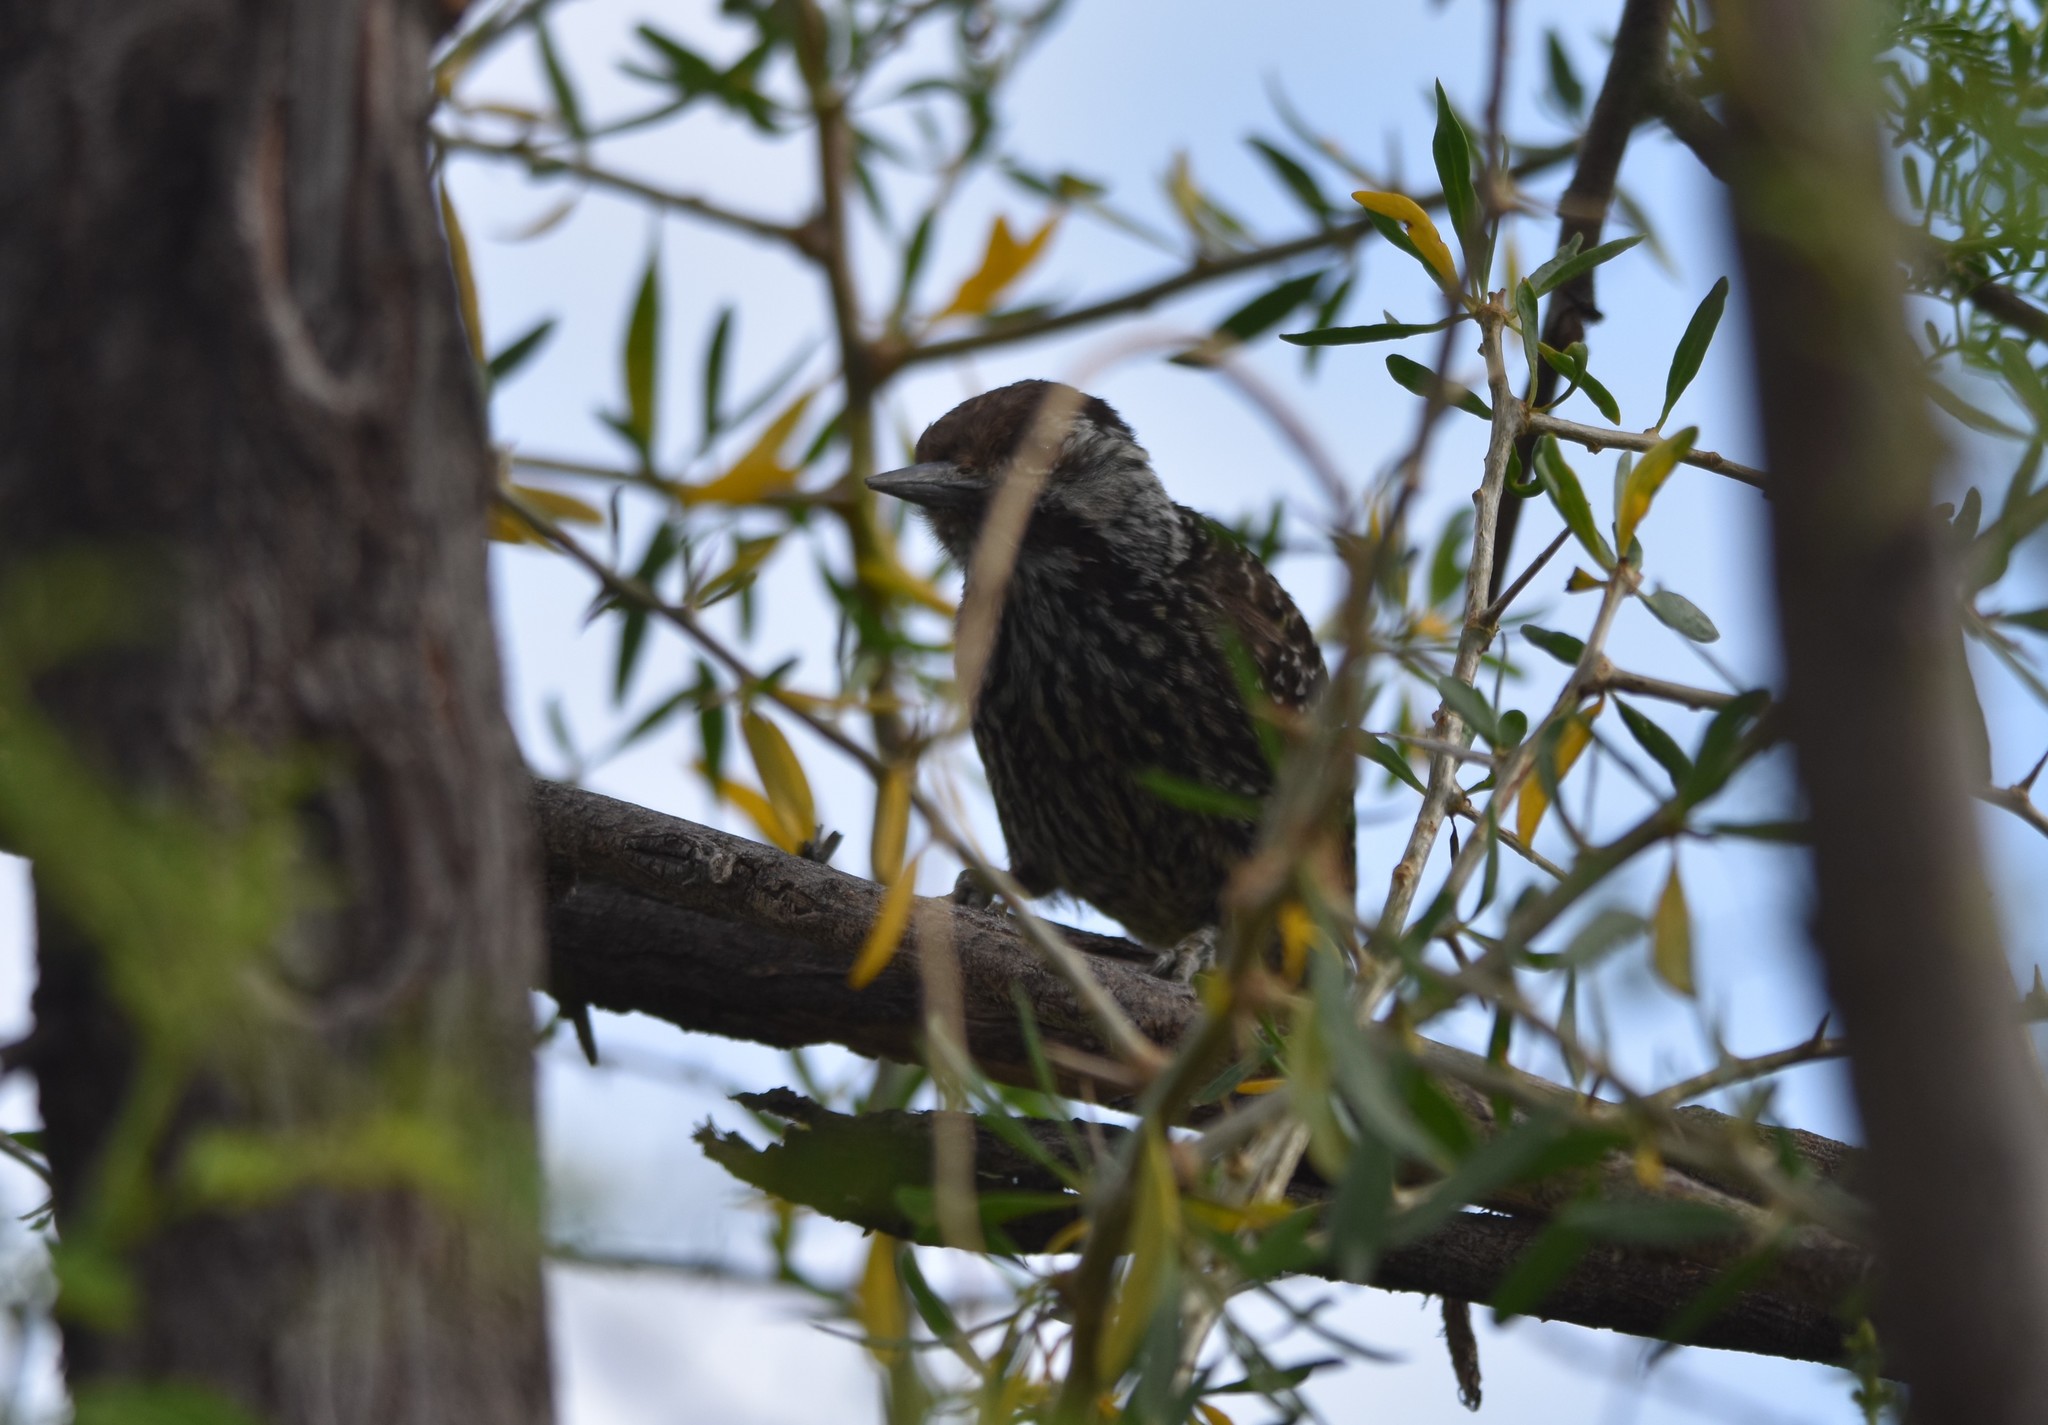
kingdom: Animalia
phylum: Chordata
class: Aves
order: Piciformes
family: Picidae
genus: Dendropicos
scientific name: Dendropicos fuscescens
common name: Cardinal woodpecker
